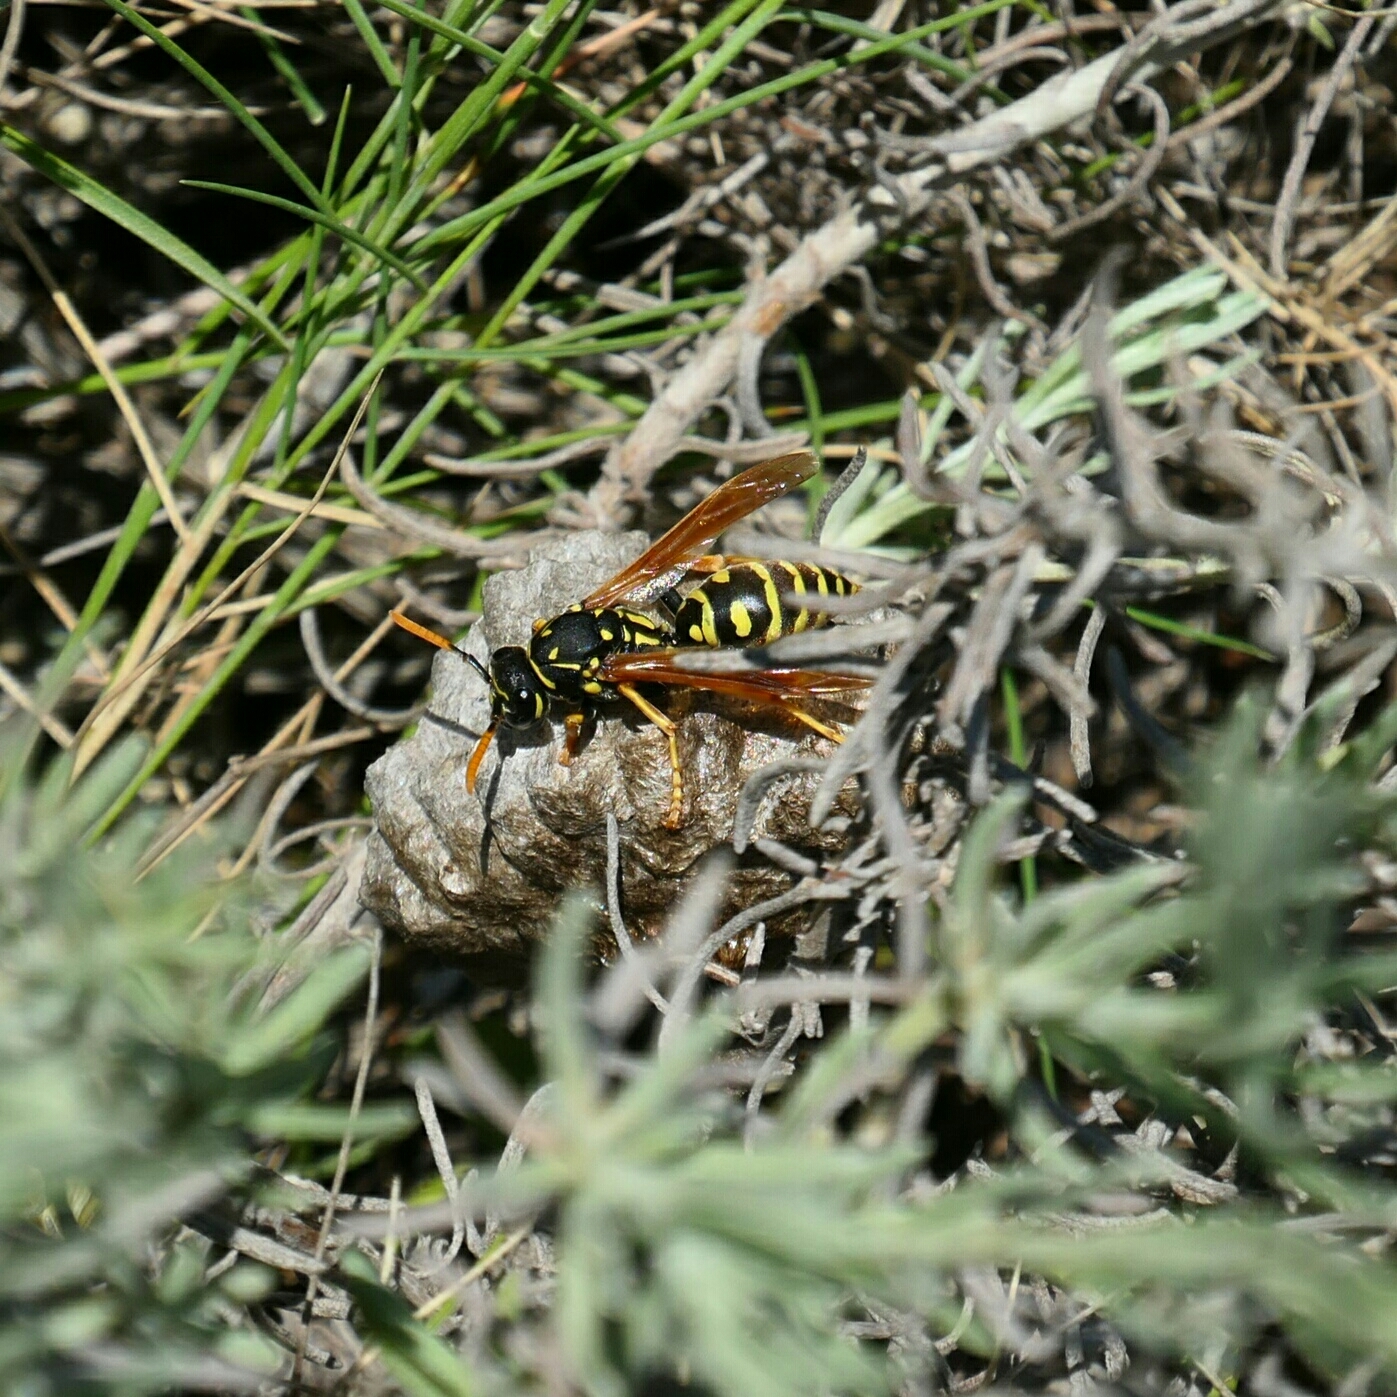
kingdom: Animalia
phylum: Arthropoda
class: Insecta
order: Hymenoptera
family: Eumenidae
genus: Polistes
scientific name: Polistes dominula
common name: Paper wasp
